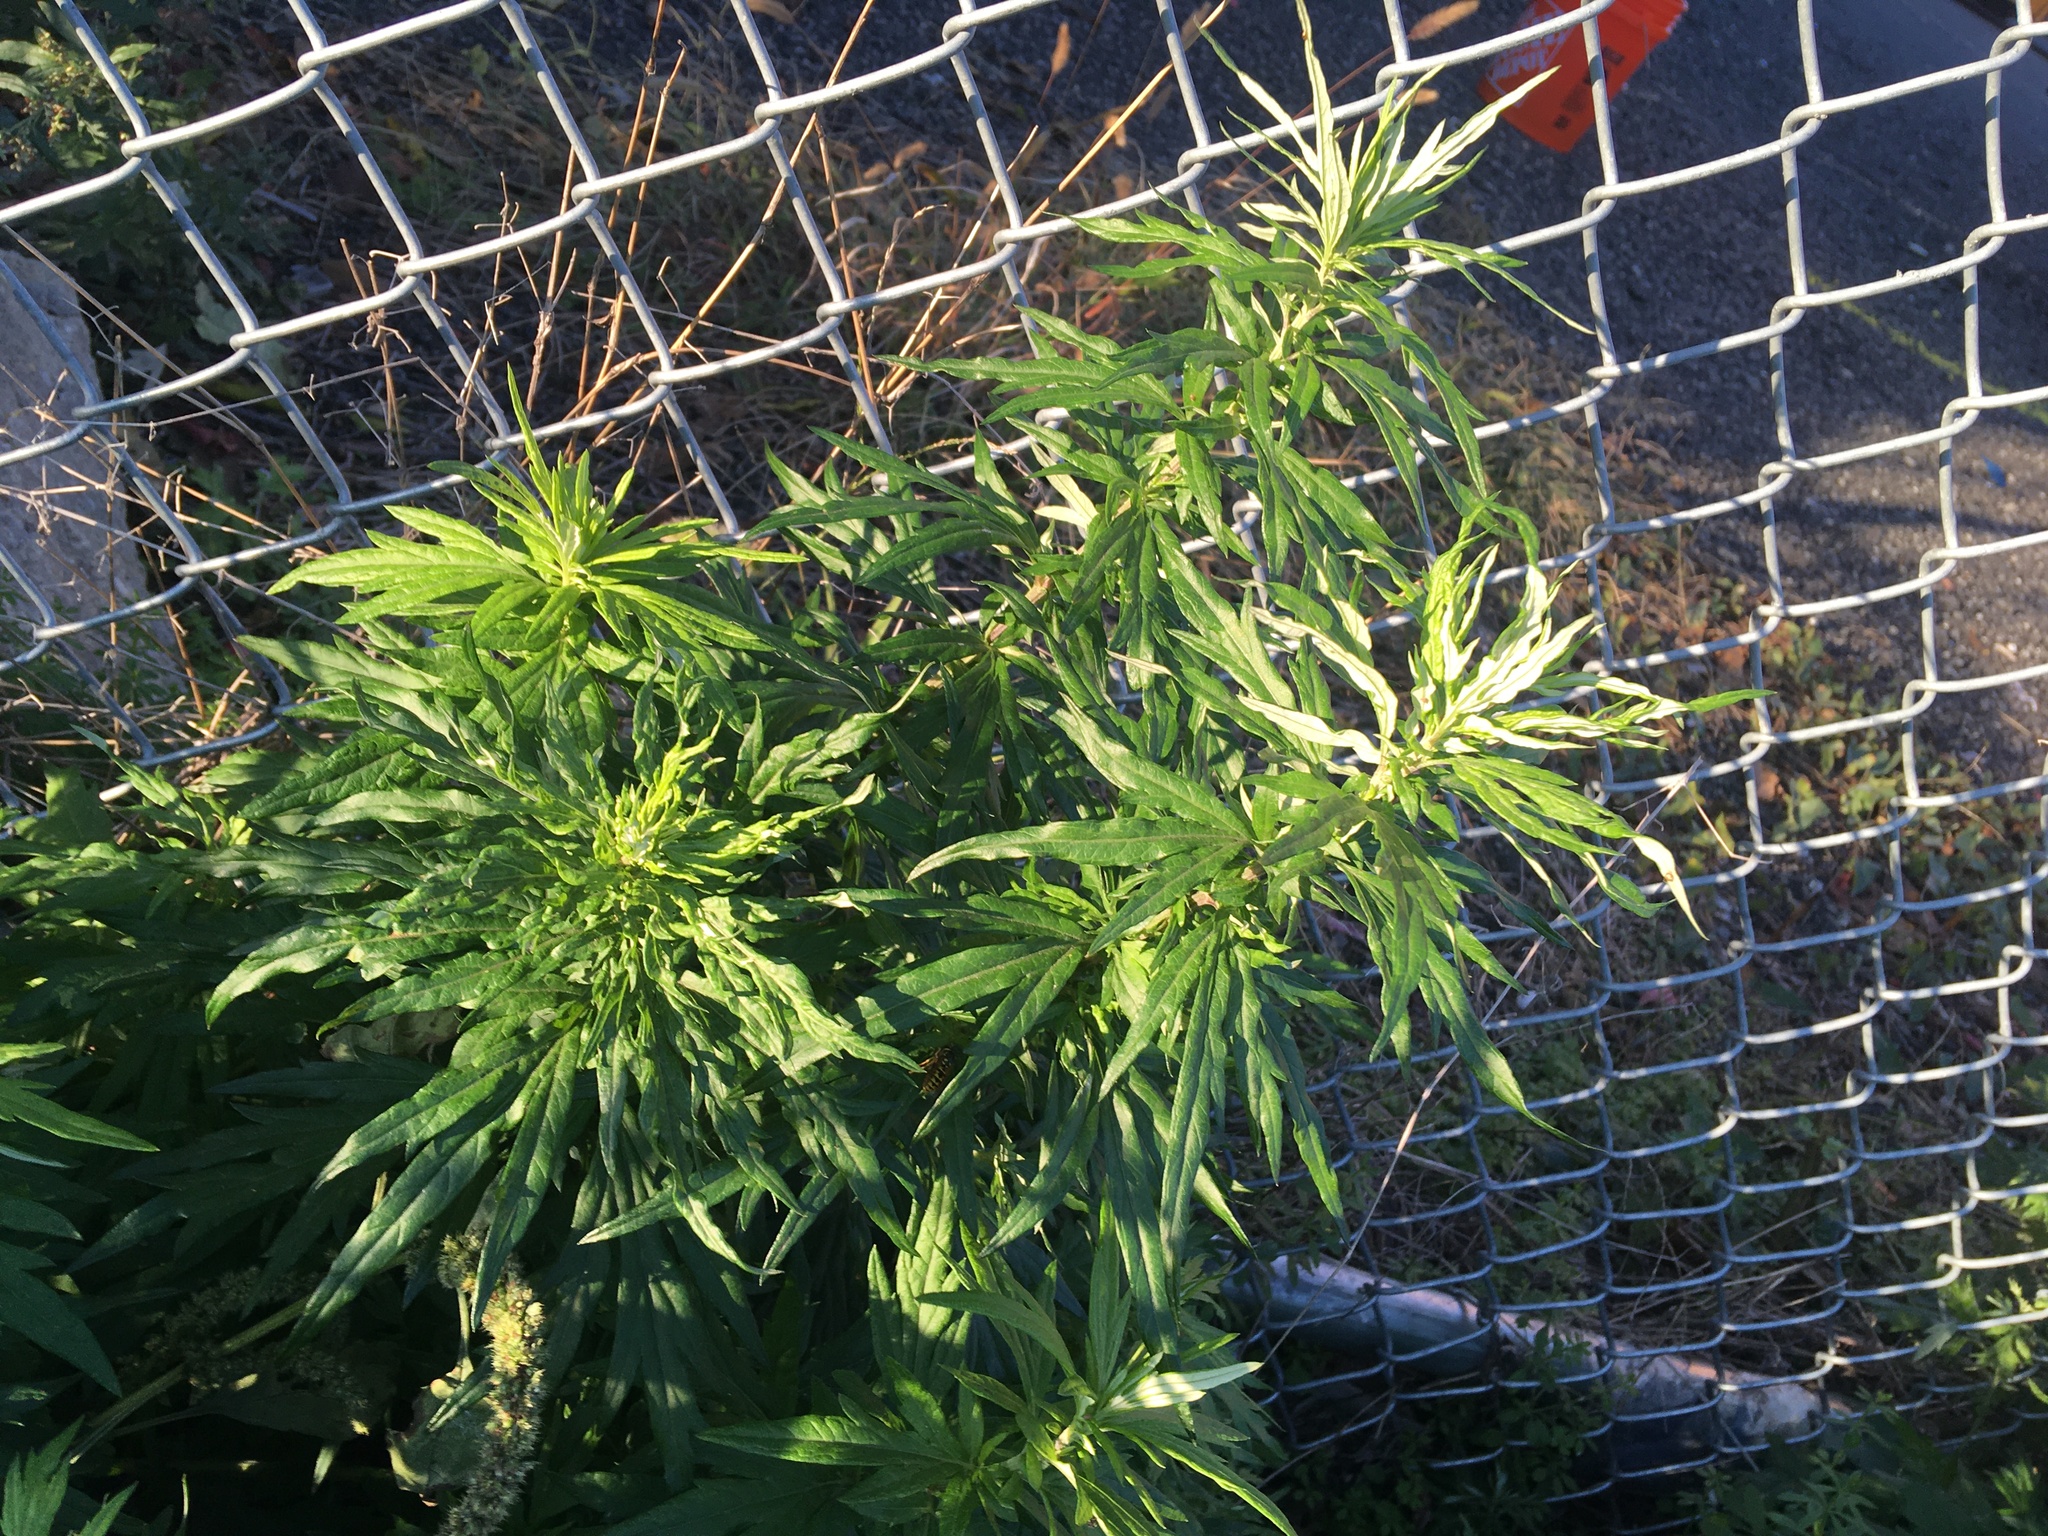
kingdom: Plantae
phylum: Tracheophyta
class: Magnoliopsida
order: Asterales
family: Asteraceae
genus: Artemisia
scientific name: Artemisia vulgaris
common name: Mugwort
